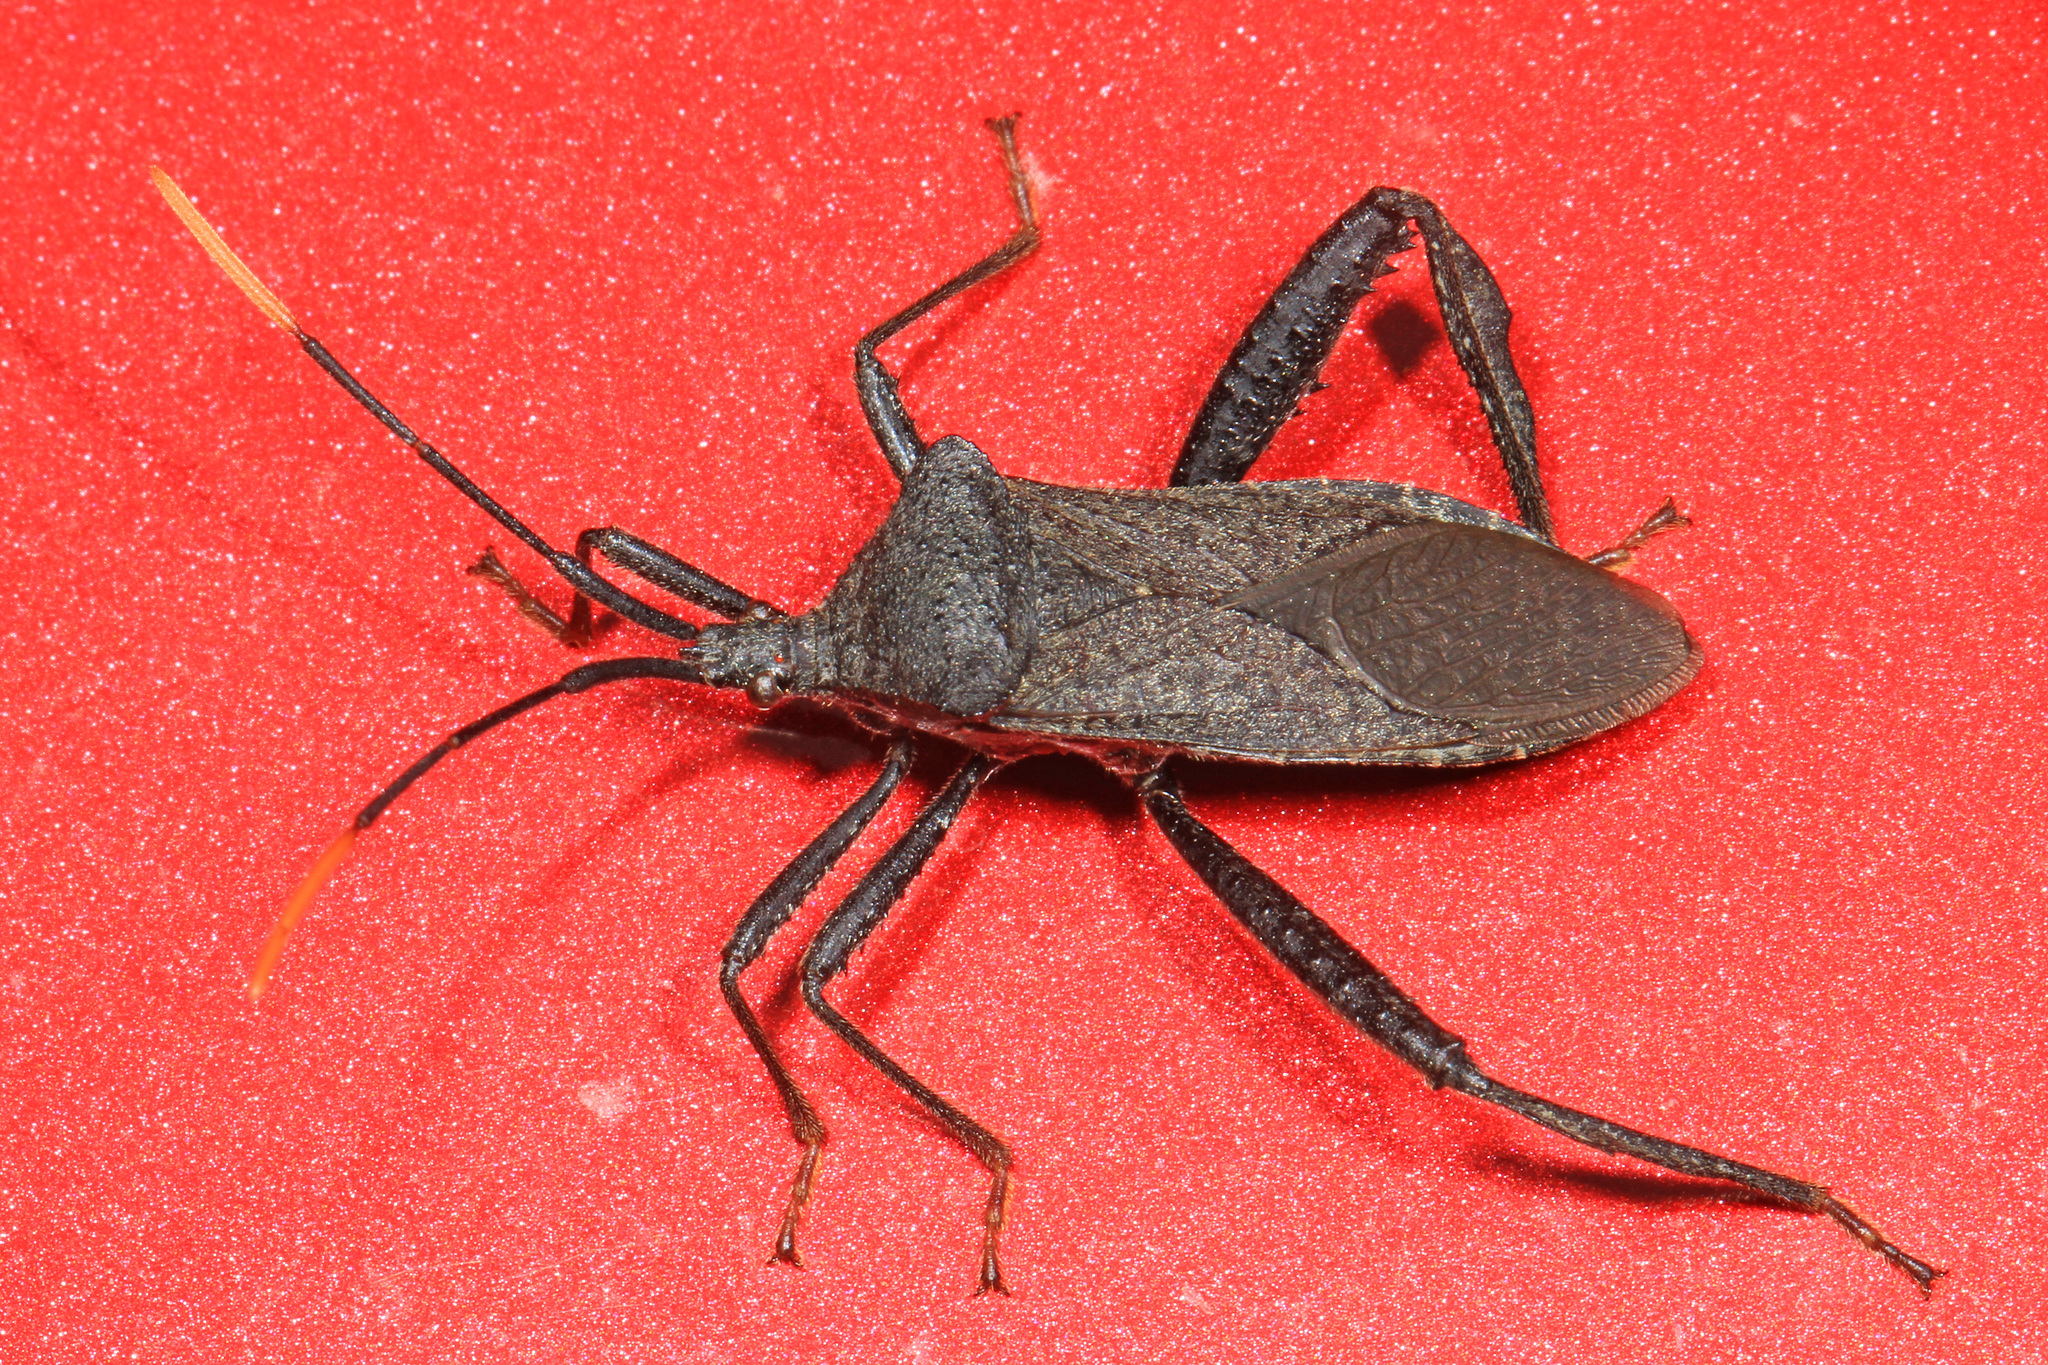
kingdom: Animalia
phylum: Arthropoda
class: Insecta
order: Hemiptera
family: Coreidae
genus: Acanthocephala
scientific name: Acanthocephala terminalis
